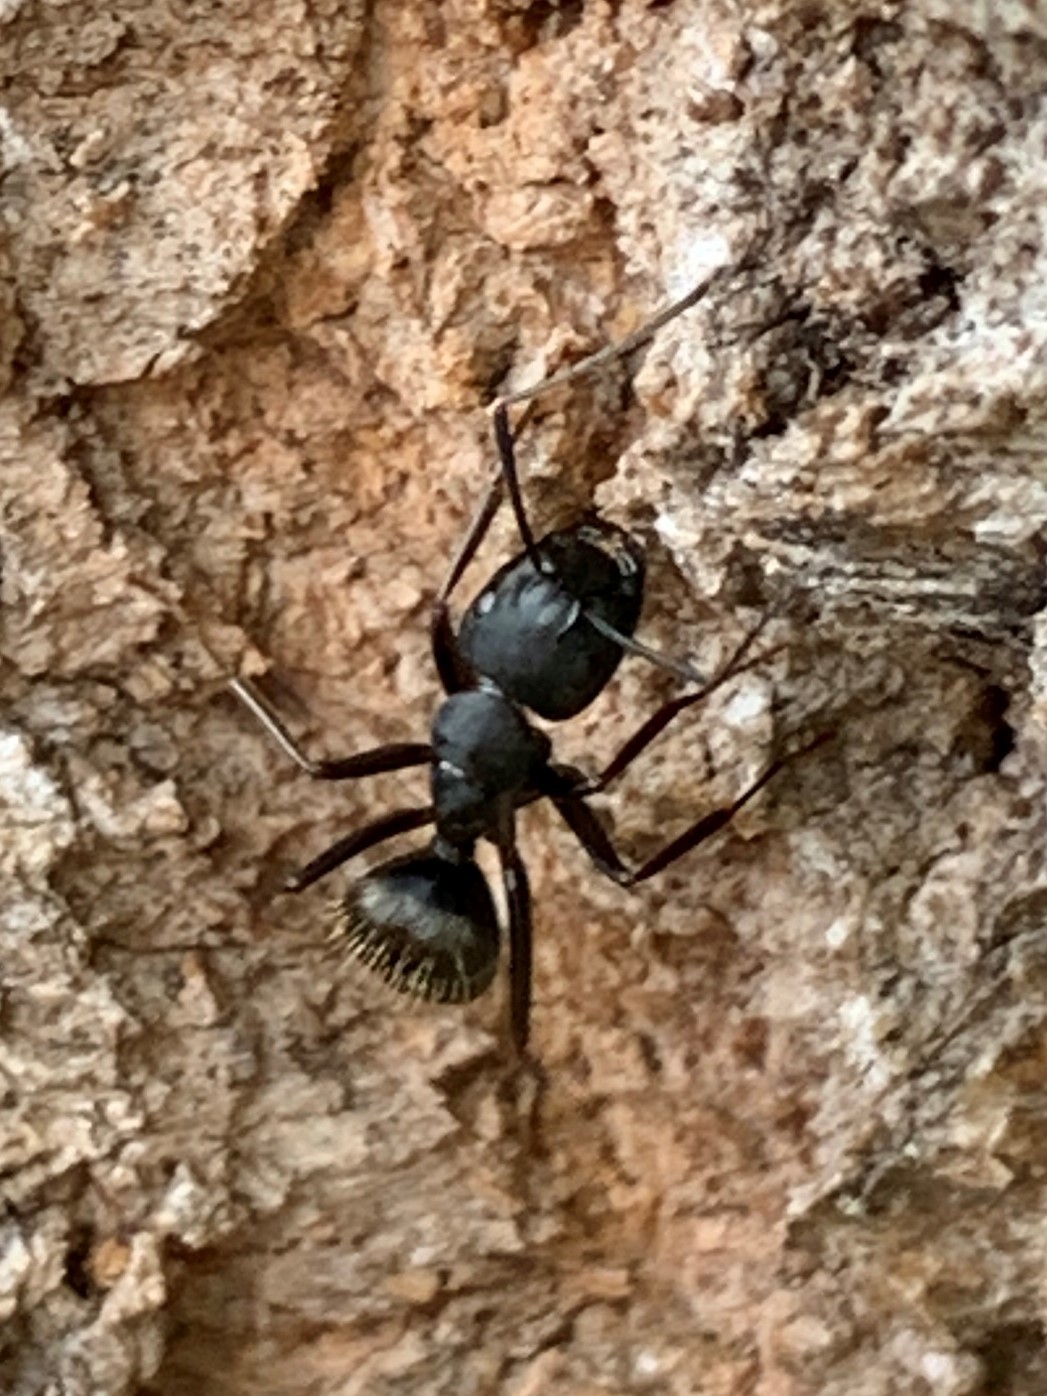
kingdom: Animalia
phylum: Arthropoda
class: Insecta
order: Hymenoptera
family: Formicidae
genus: Camponotus
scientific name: Camponotus pennsylvanicus
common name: Black carpenter ant
